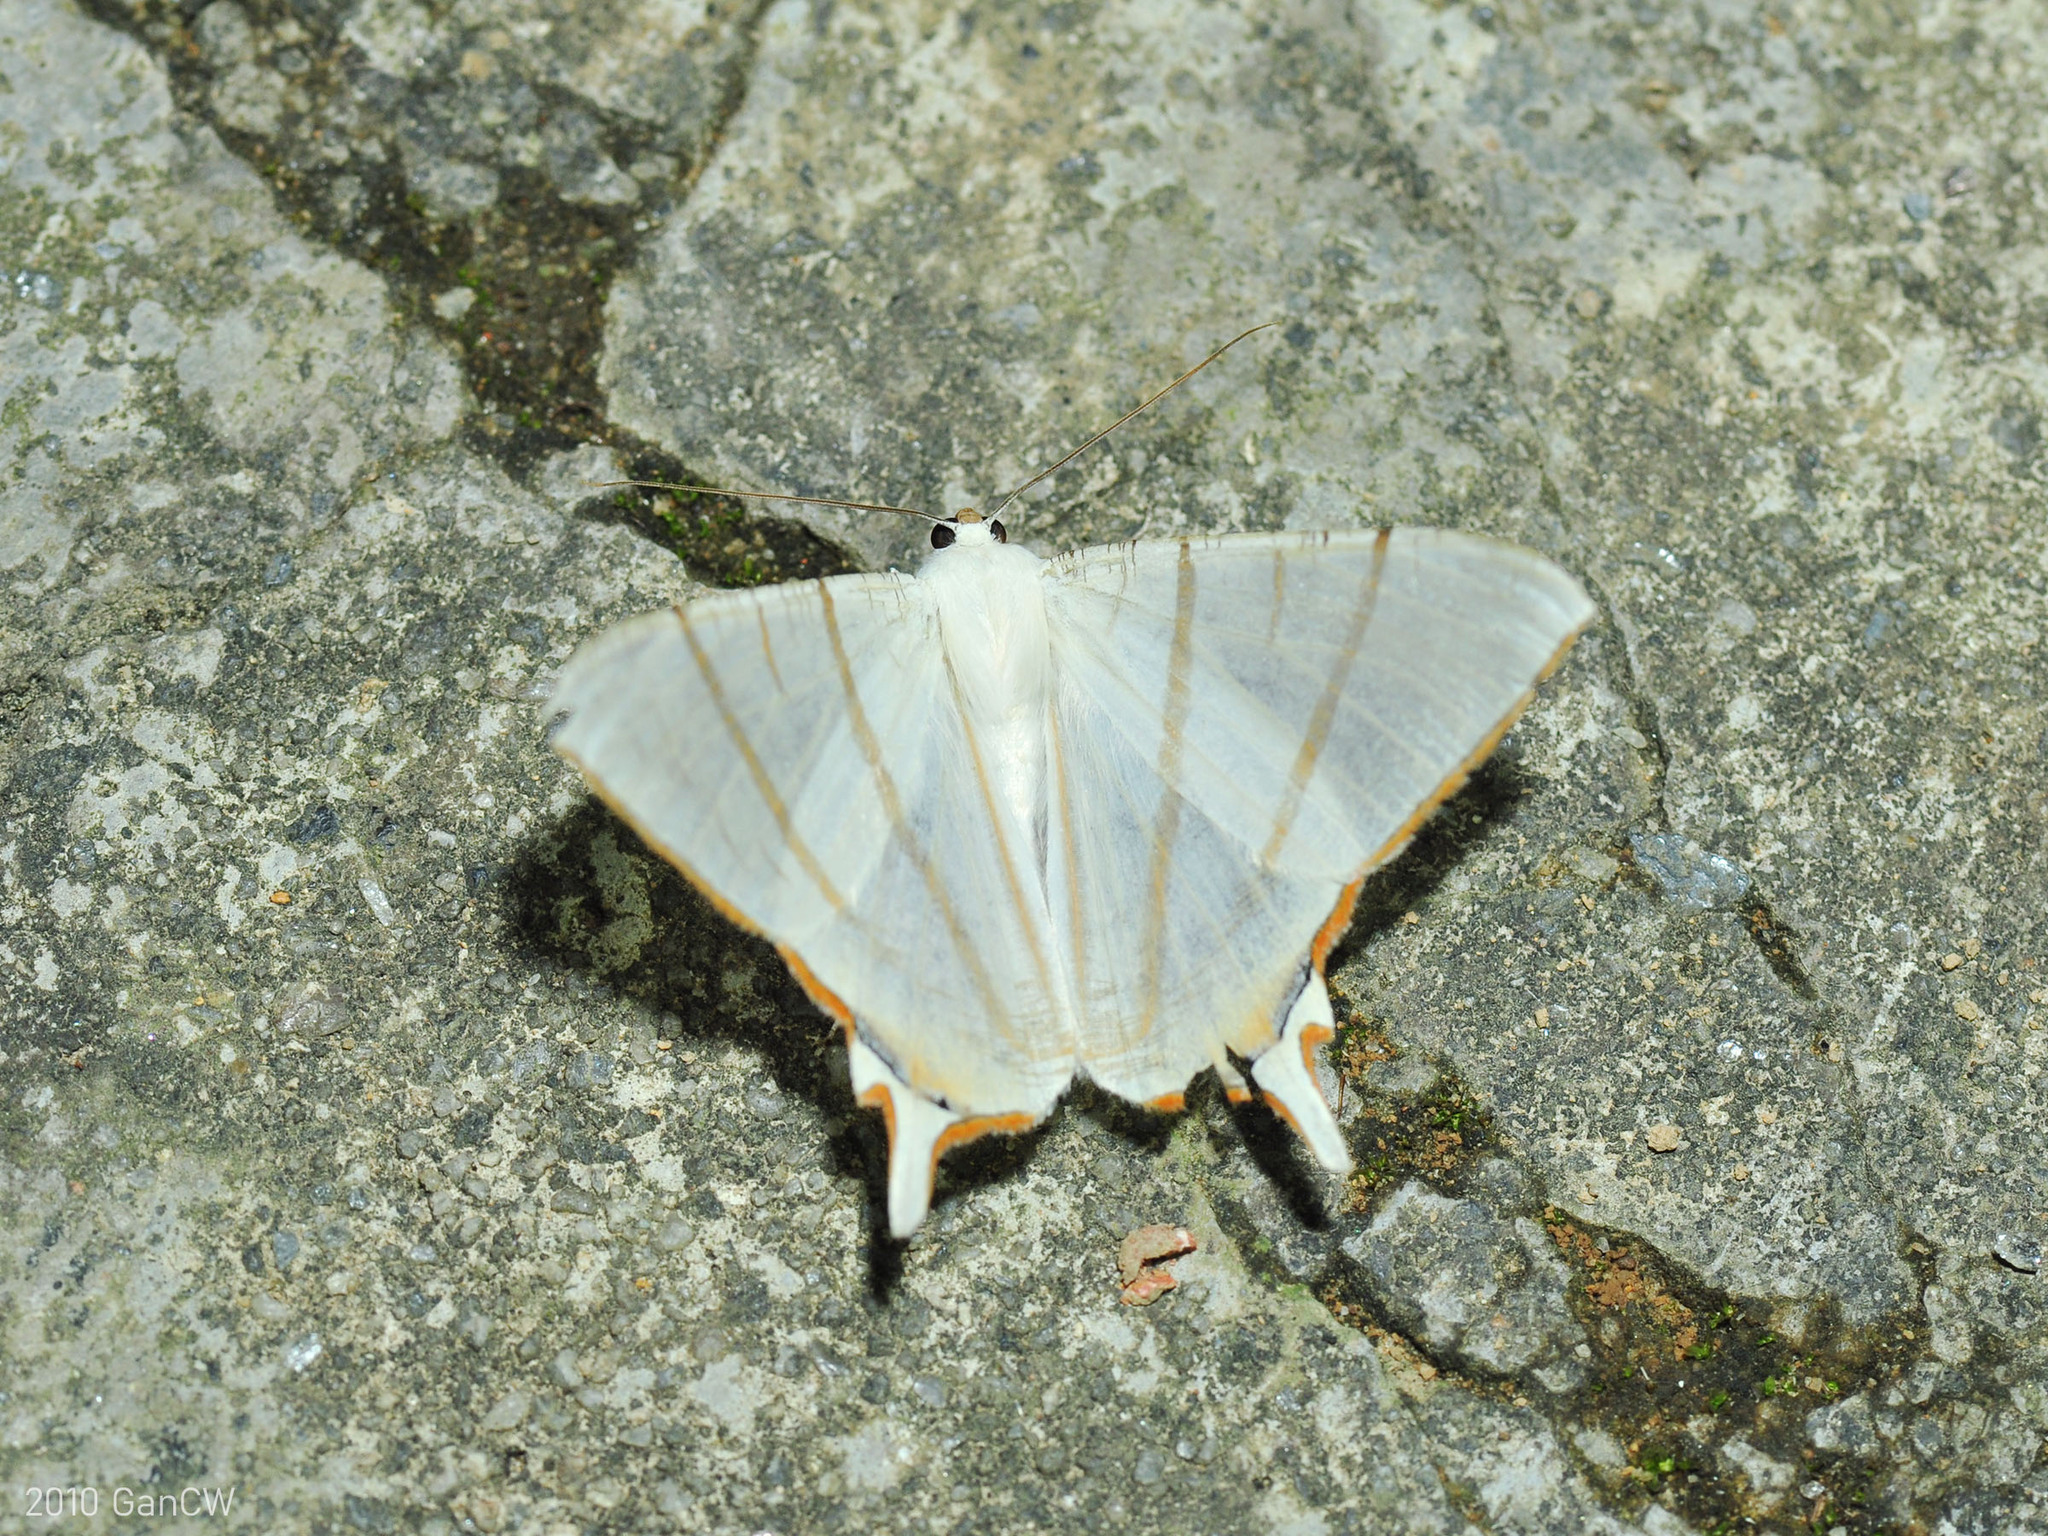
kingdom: Animalia
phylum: Arthropoda
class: Insecta
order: Lepidoptera
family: Geometridae
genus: Ourapteryx
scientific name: Ourapteryx claretta
